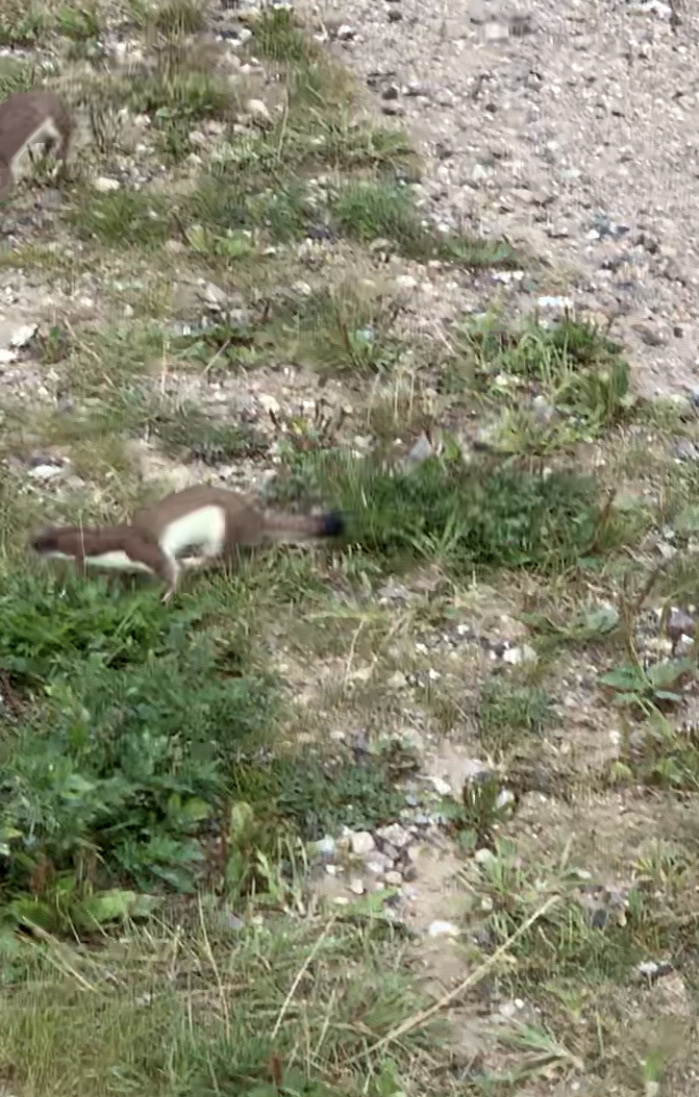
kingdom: Animalia
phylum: Chordata
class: Mammalia
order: Carnivora
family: Mustelidae
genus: Mustela
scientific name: Mustela erminea
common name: Stoat
